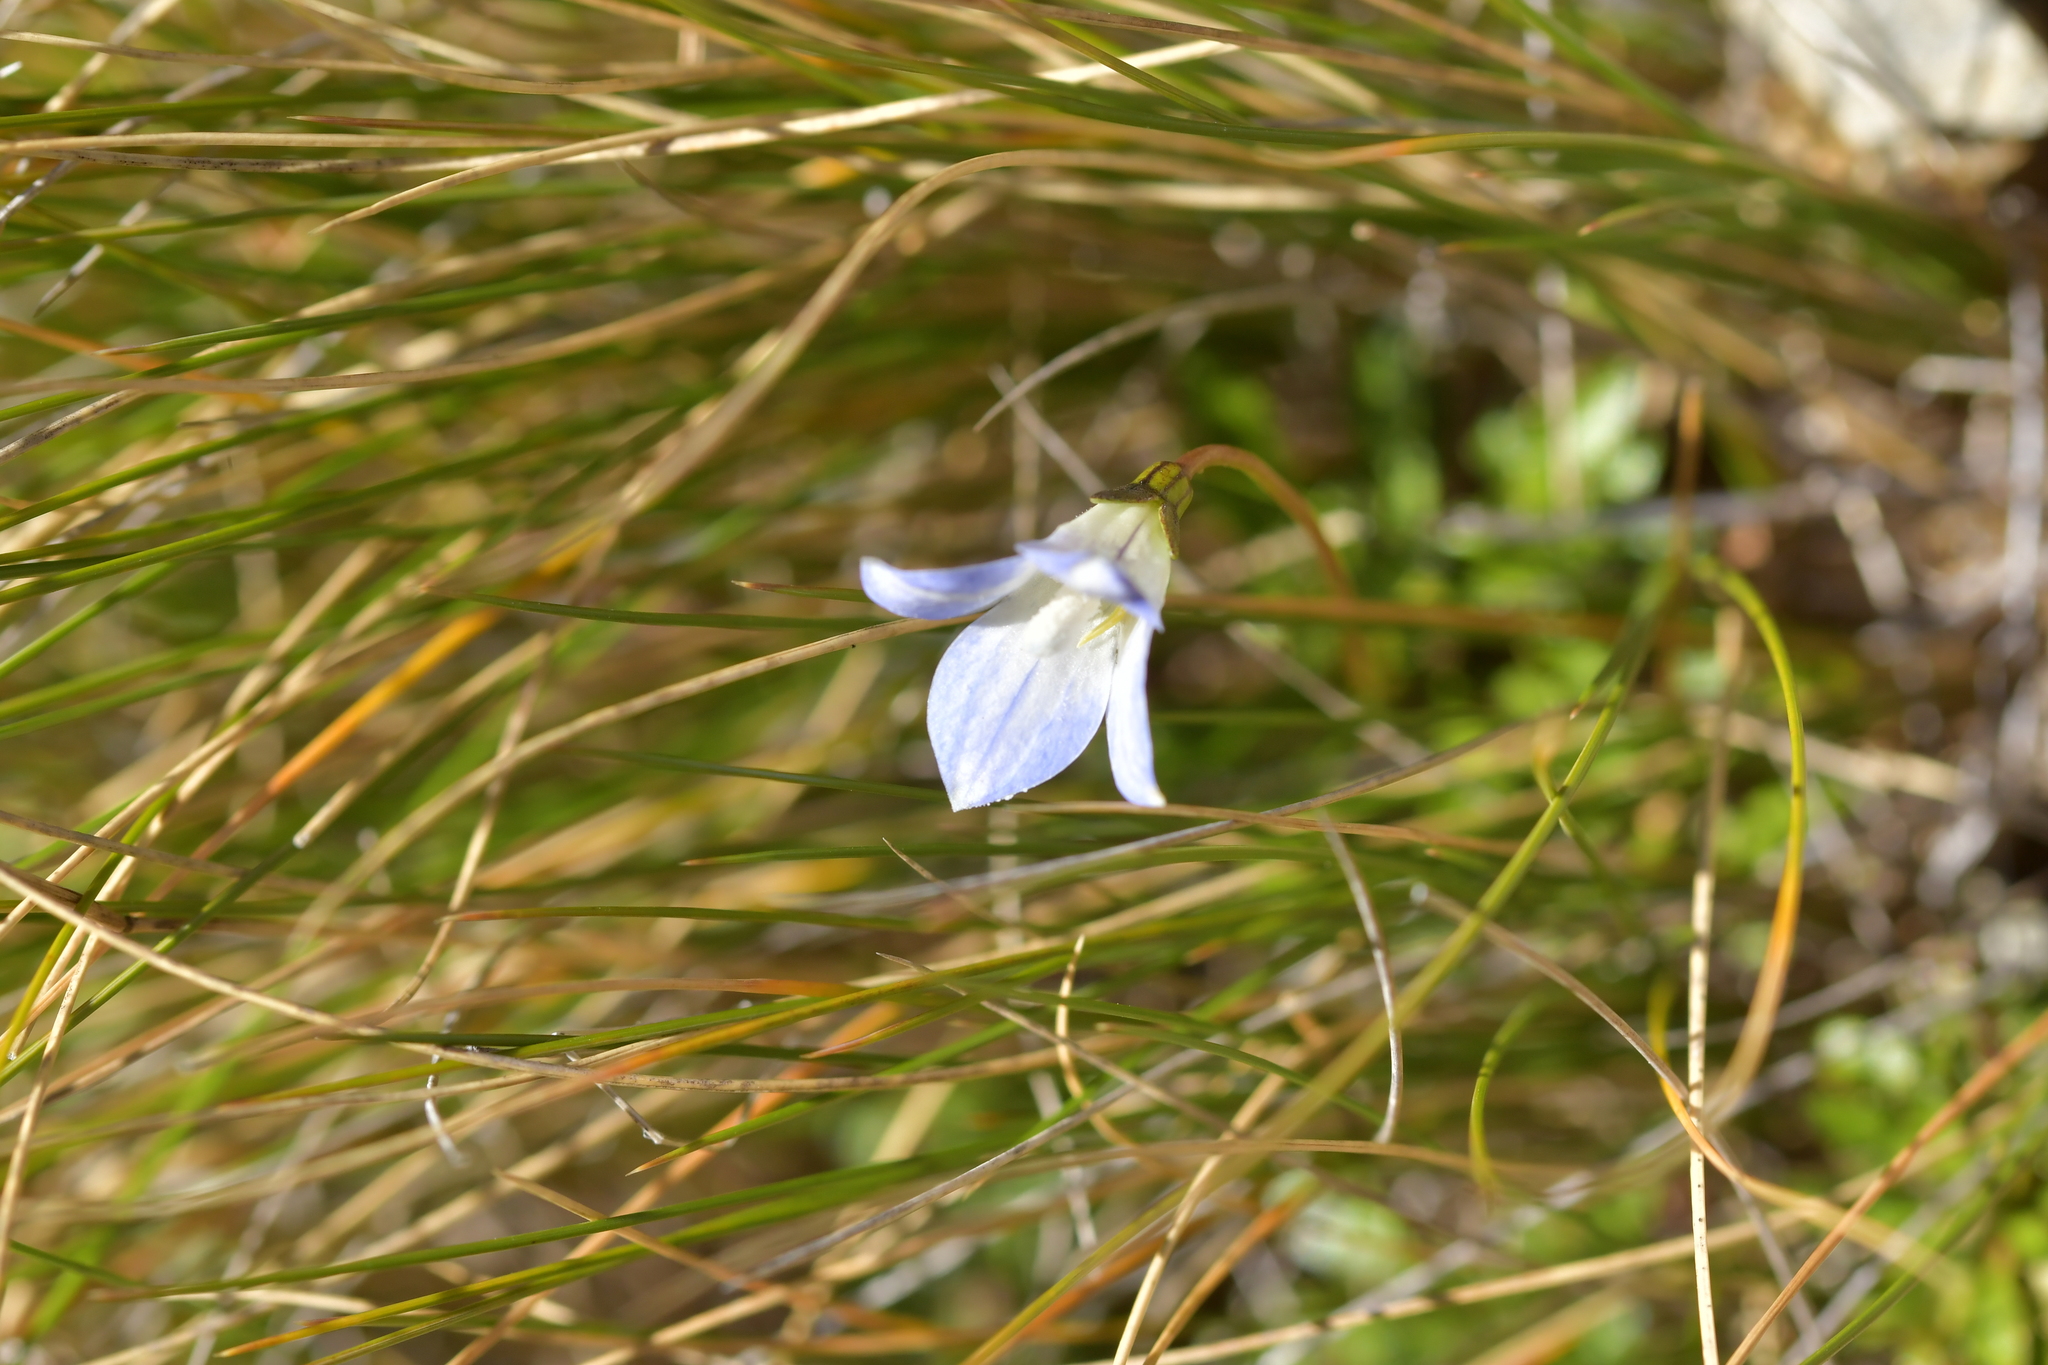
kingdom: Plantae
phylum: Tracheophyta
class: Magnoliopsida
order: Asterales
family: Campanulaceae
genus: Wahlenbergia
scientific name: Wahlenbergia pygmaea
